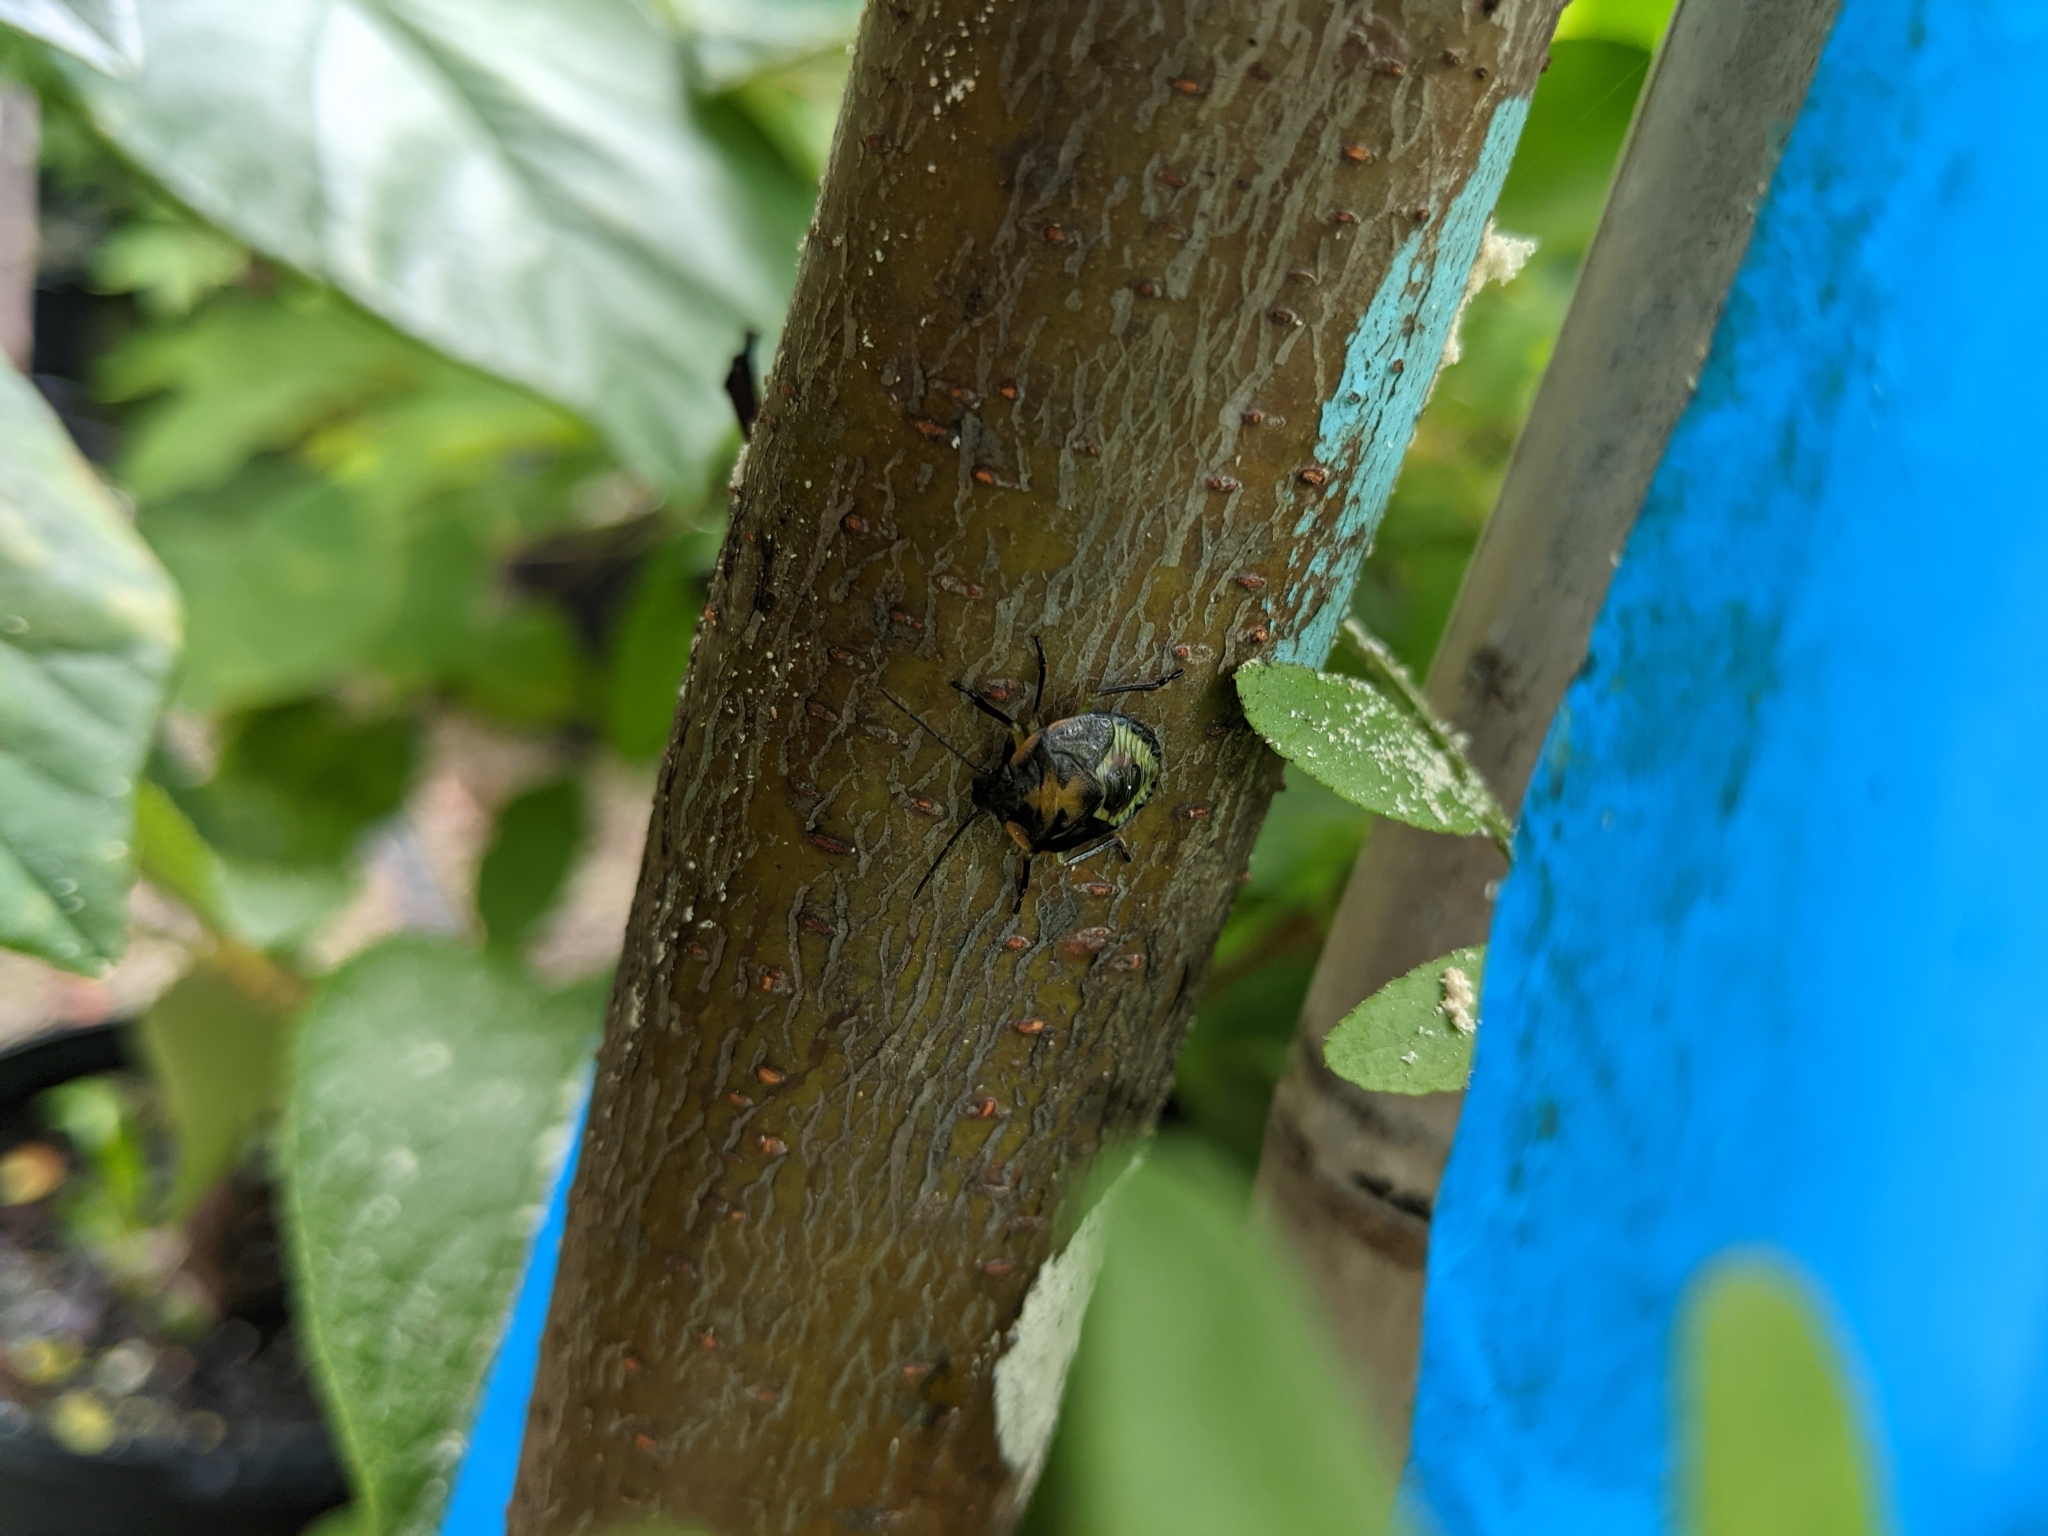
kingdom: Animalia
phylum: Arthropoda
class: Insecta
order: Hemiptera
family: Pentatomidae
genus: Chinavia
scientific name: Chinavia hilaris
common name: Green stink bug
